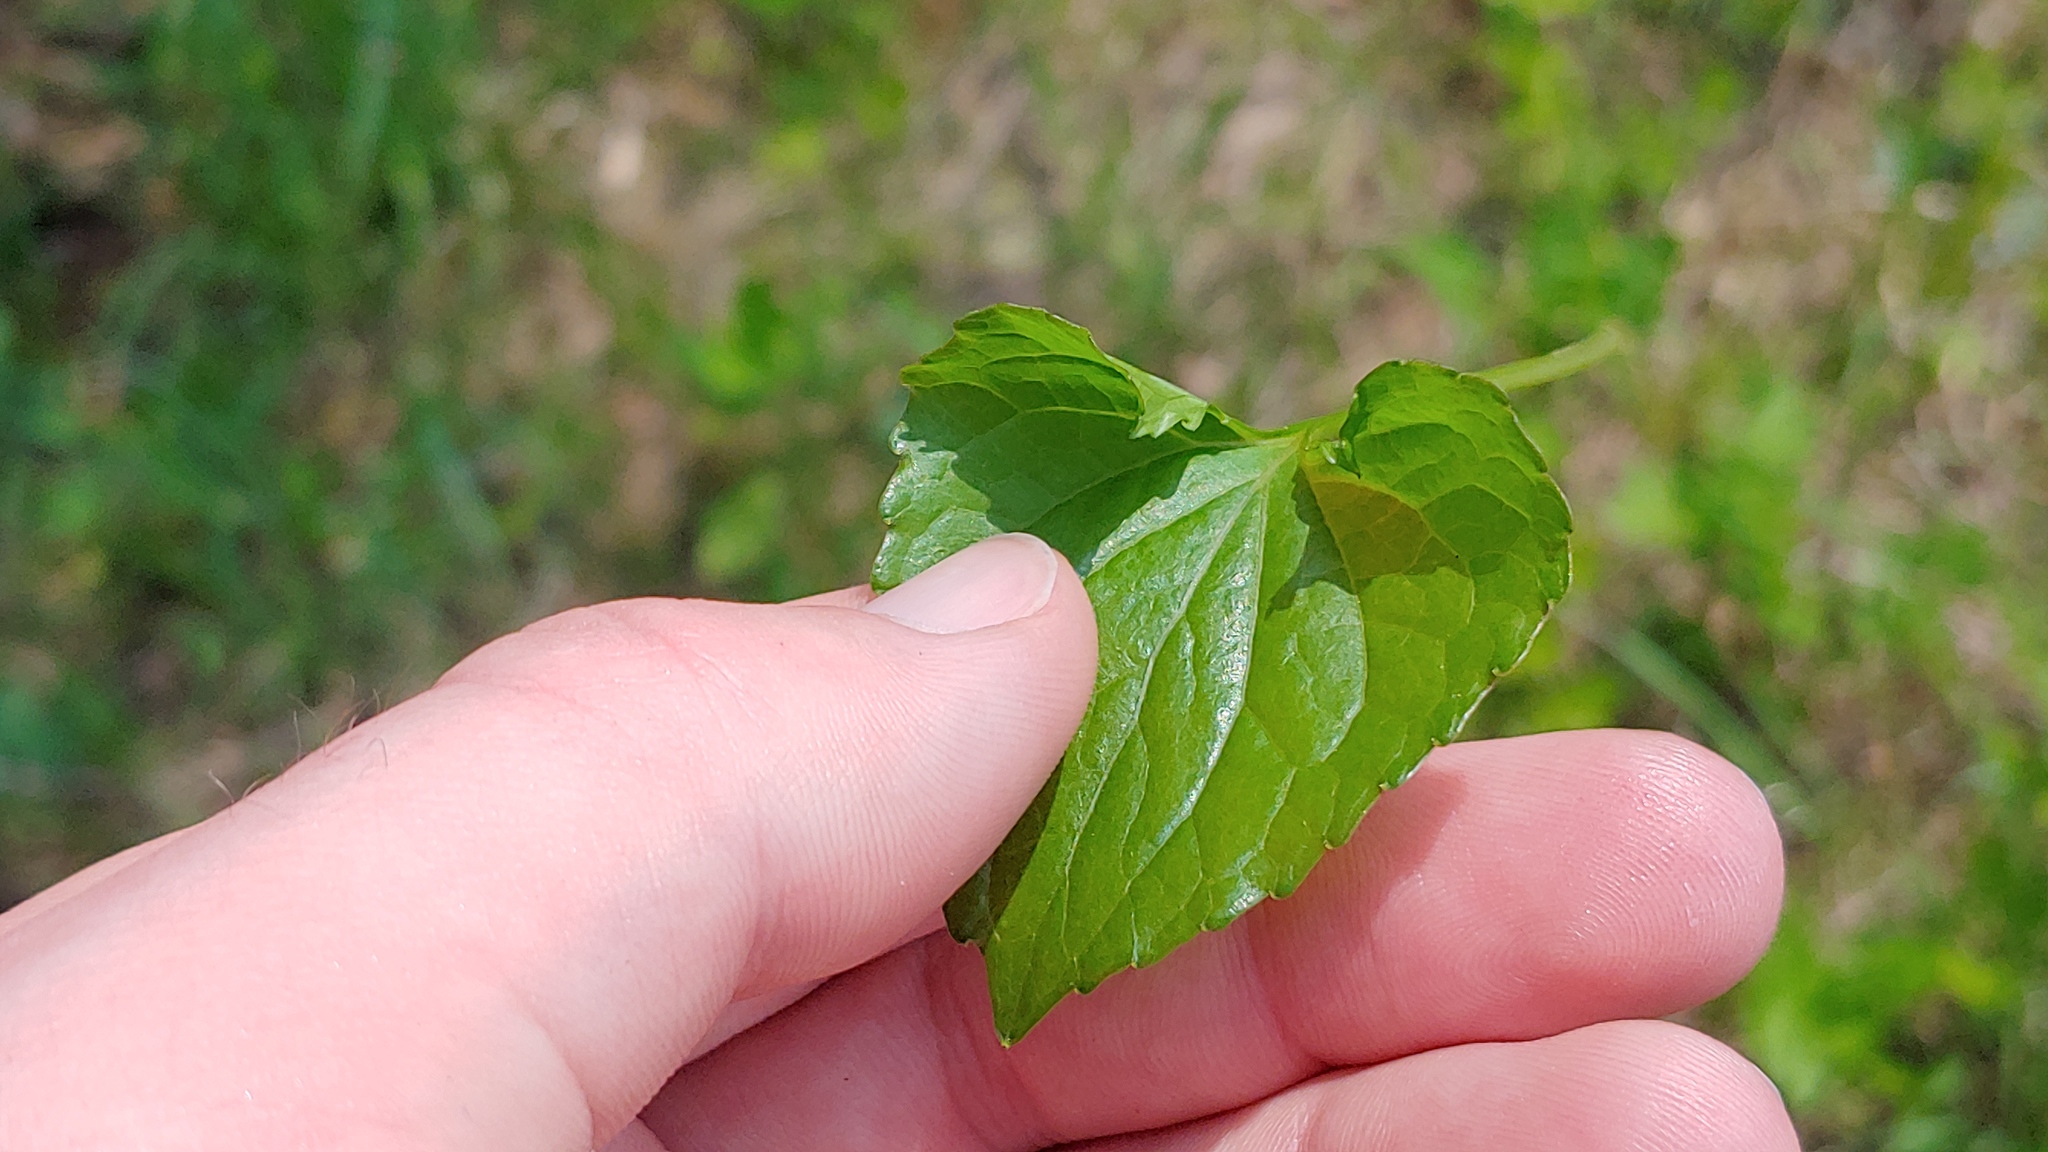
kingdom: Plantae
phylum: Tracheophyta
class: Magnoliopsida
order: Malpighiales
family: Violaceae
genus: Viola
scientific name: Viola nephrophylla
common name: Blue meadow violet
